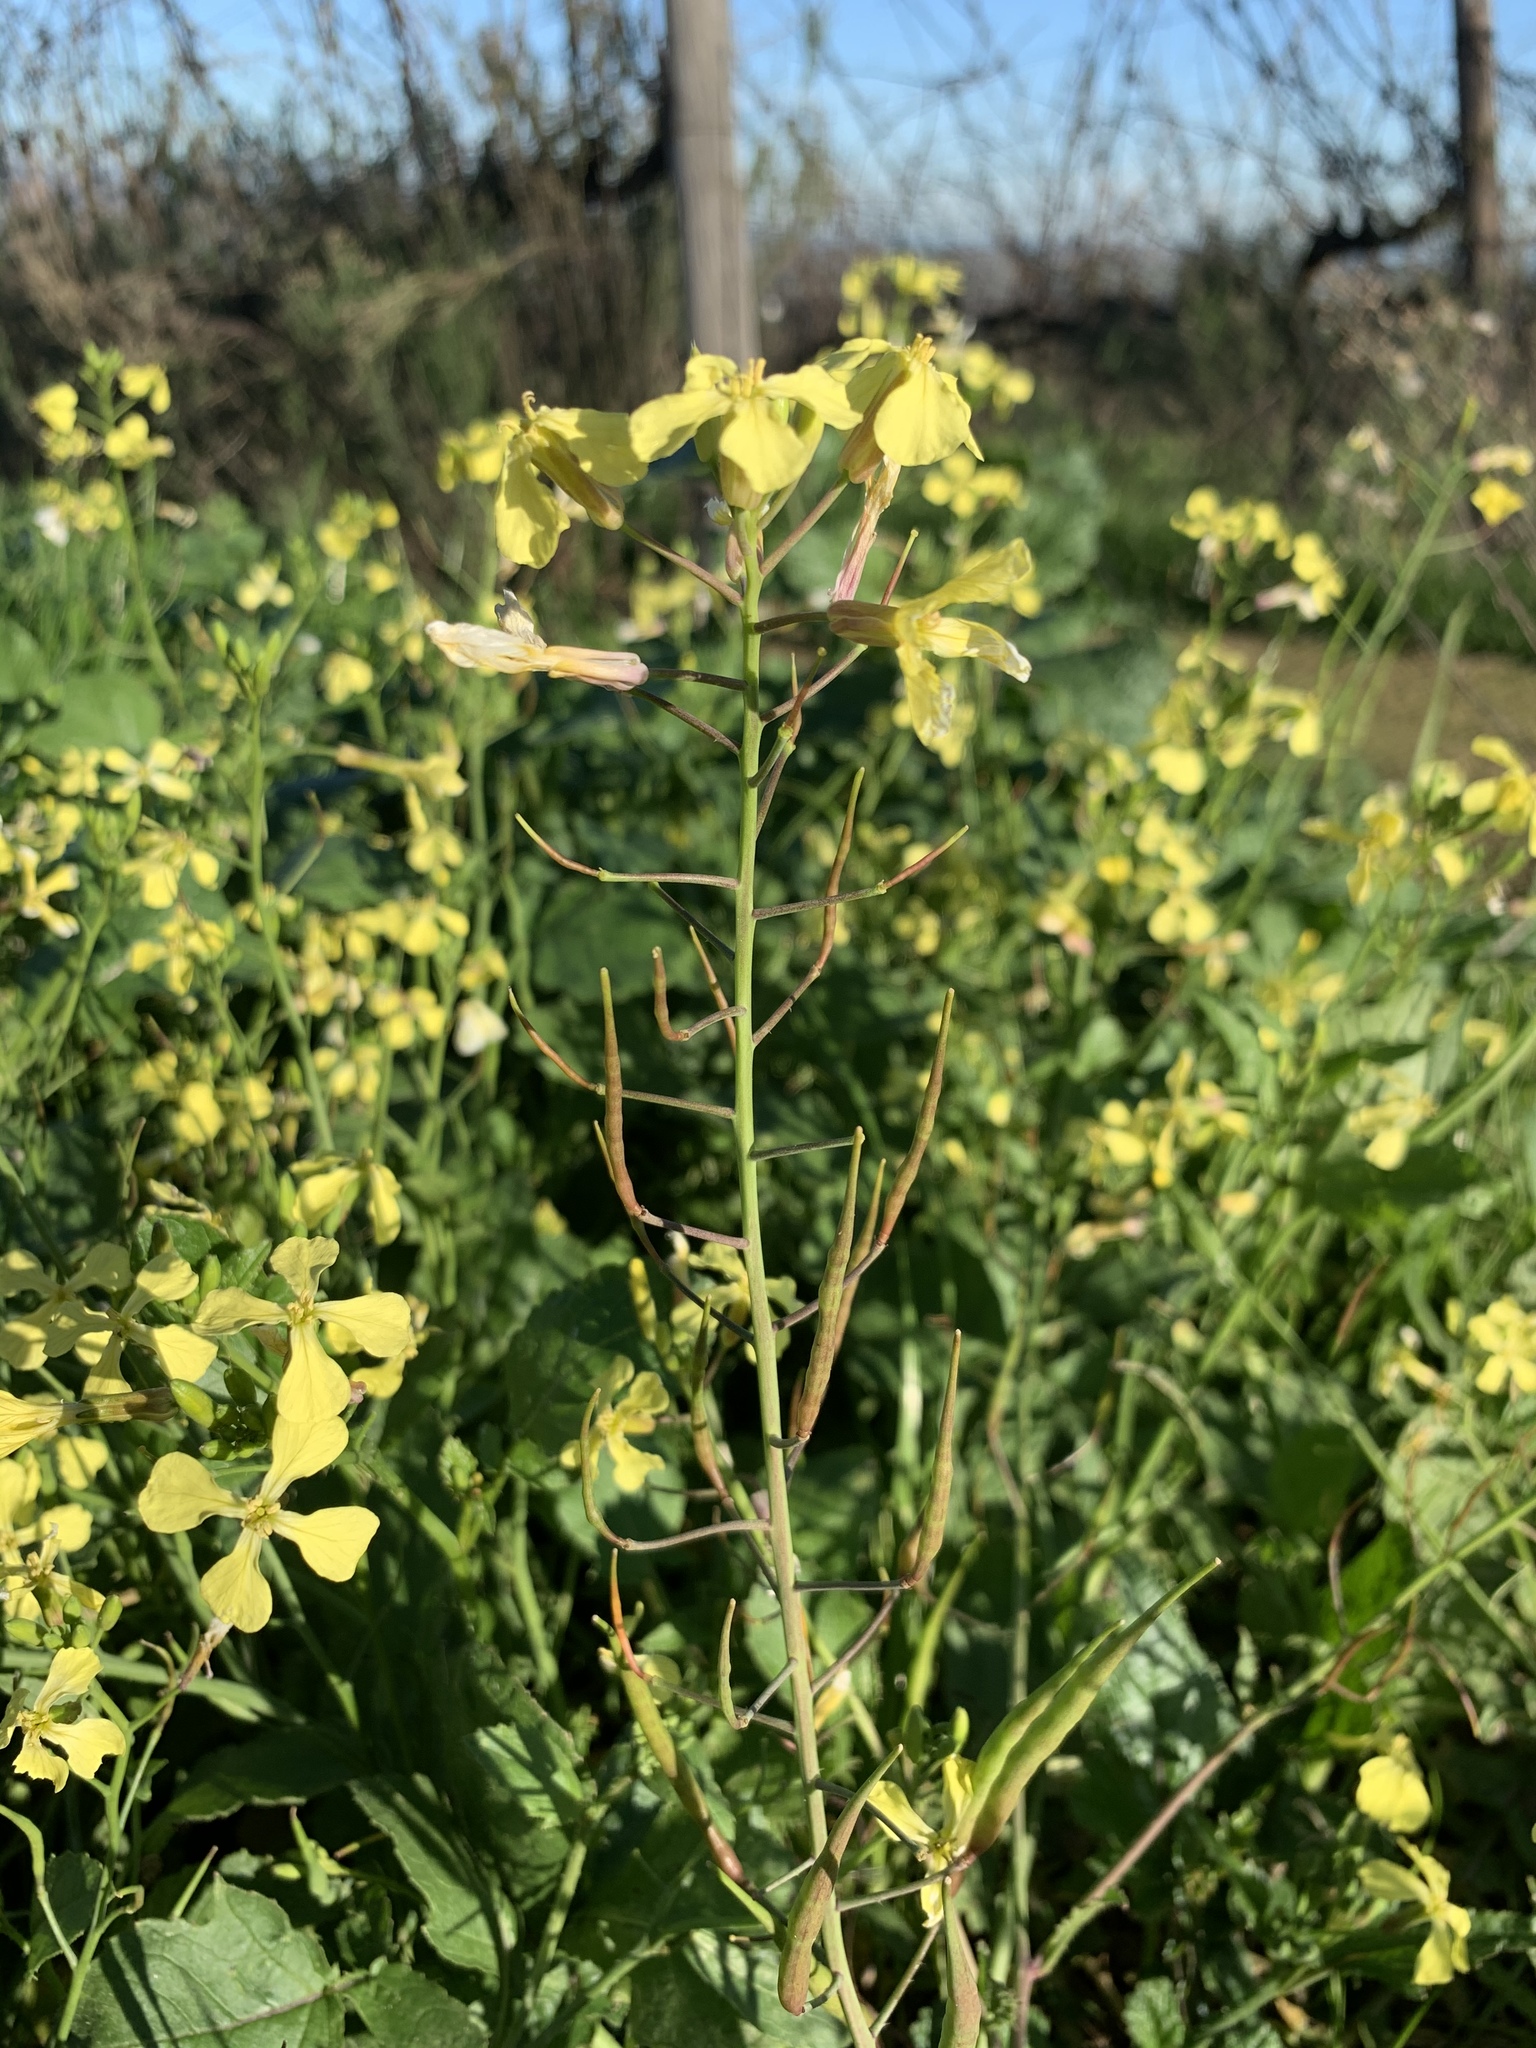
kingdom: Plantae
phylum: Tracheophyta
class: Magnoliopsida
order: Brassicales
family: Brassicaceae
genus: Raphanus
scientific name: Raphanus raphanistrum
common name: Wild radish
